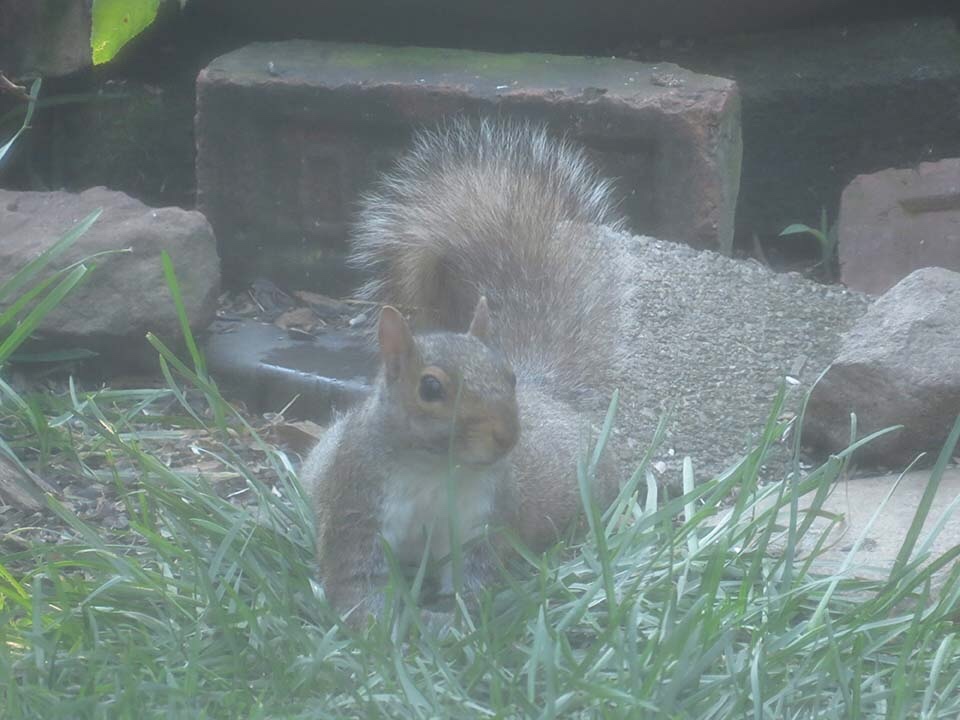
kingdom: Animalia
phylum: Chordata
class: Mammalia
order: Rodentia
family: Sciuridae
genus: Sciurus
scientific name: Sciurus carolinensis
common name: Eastern gray squirrel
